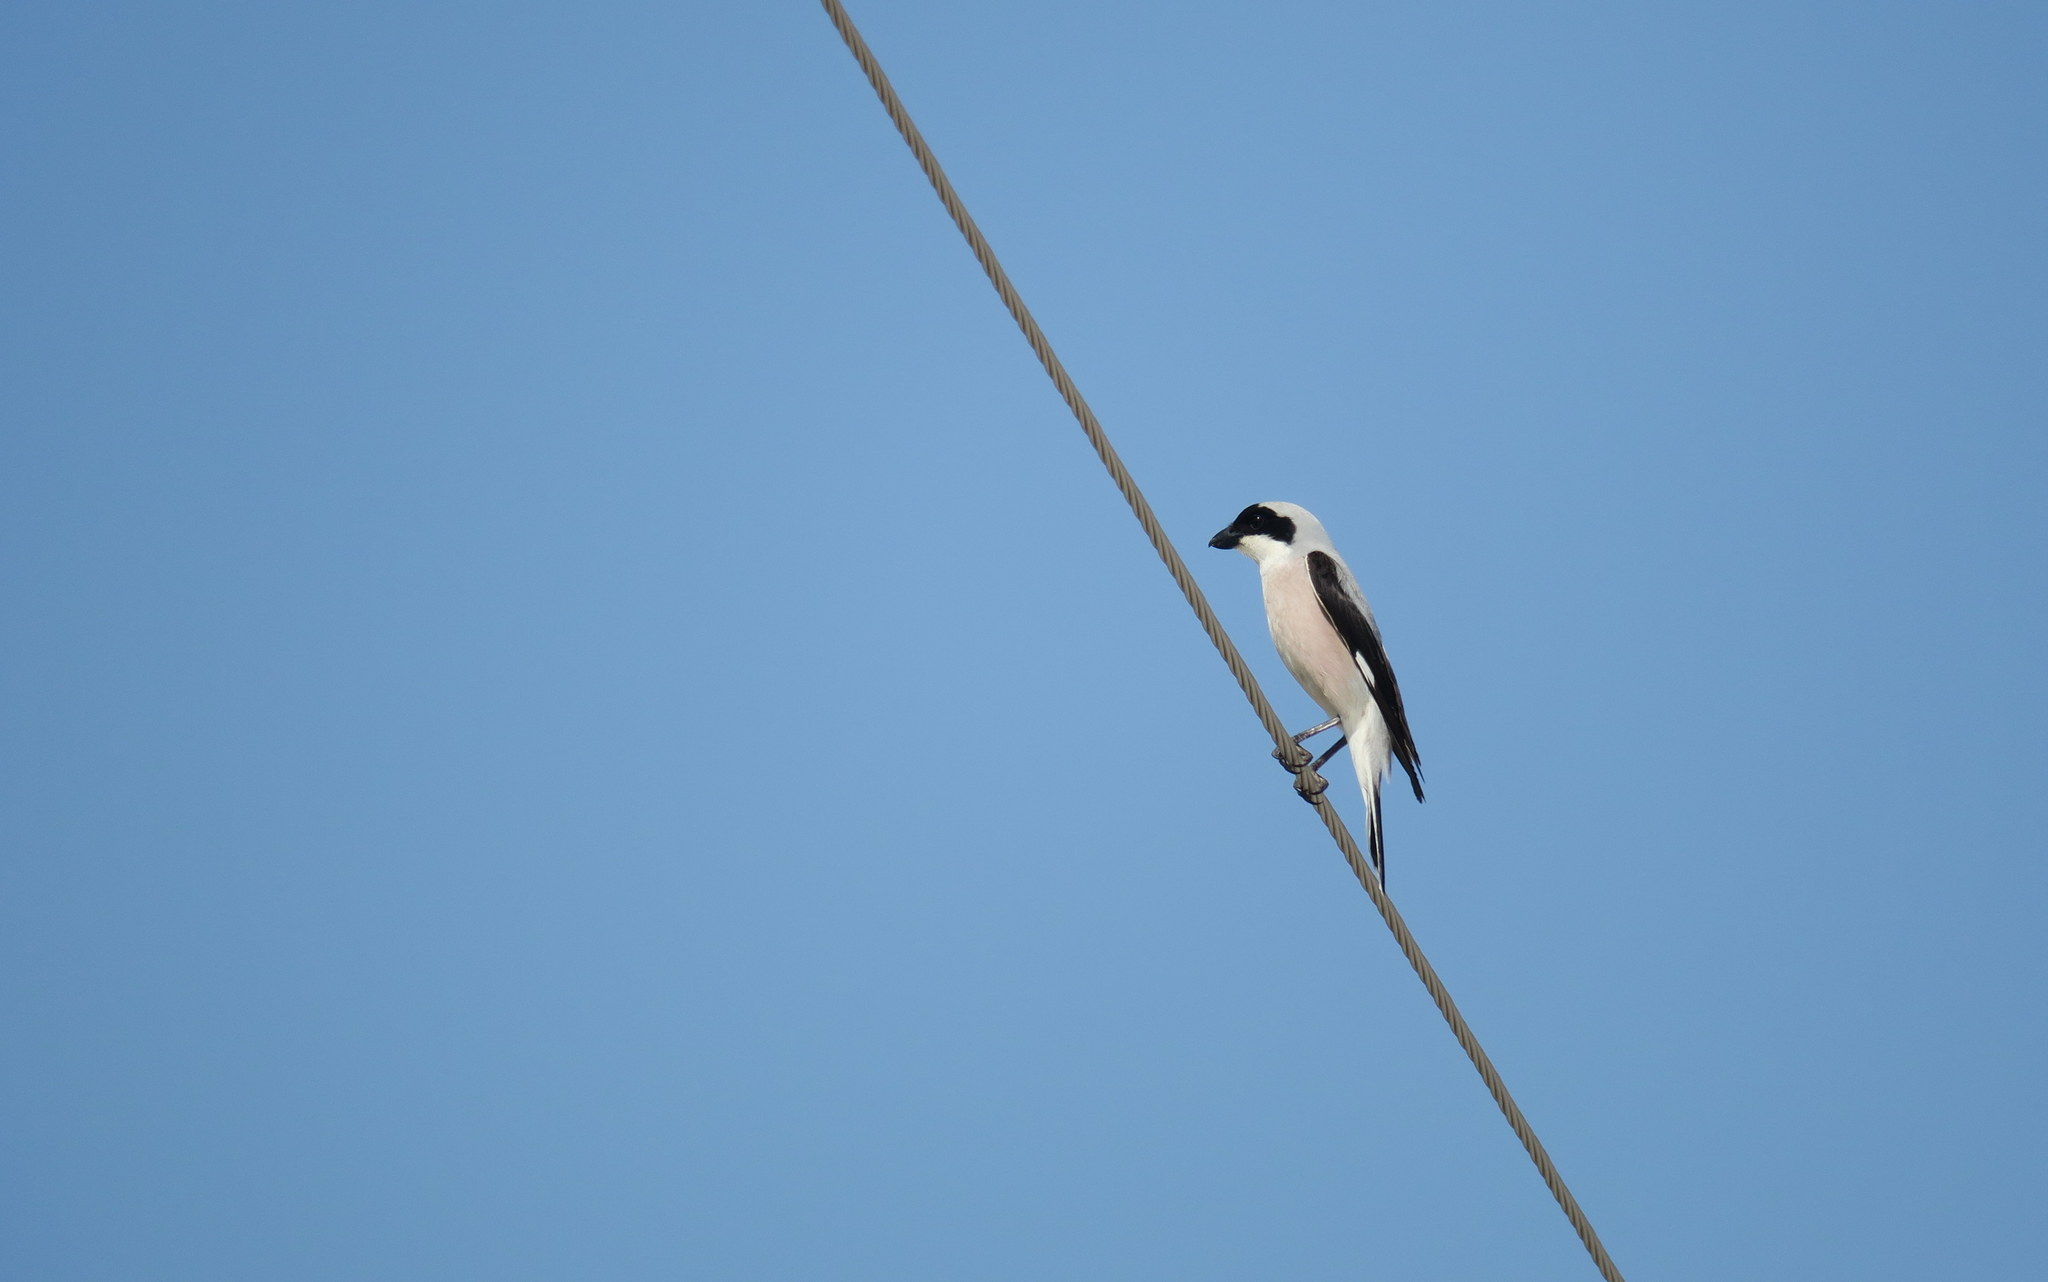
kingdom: Animalia
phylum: Chordata
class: Aves
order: Passeriformes
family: Laniidae
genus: Lanius
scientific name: Lanius minor
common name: Lesser grey shrike
